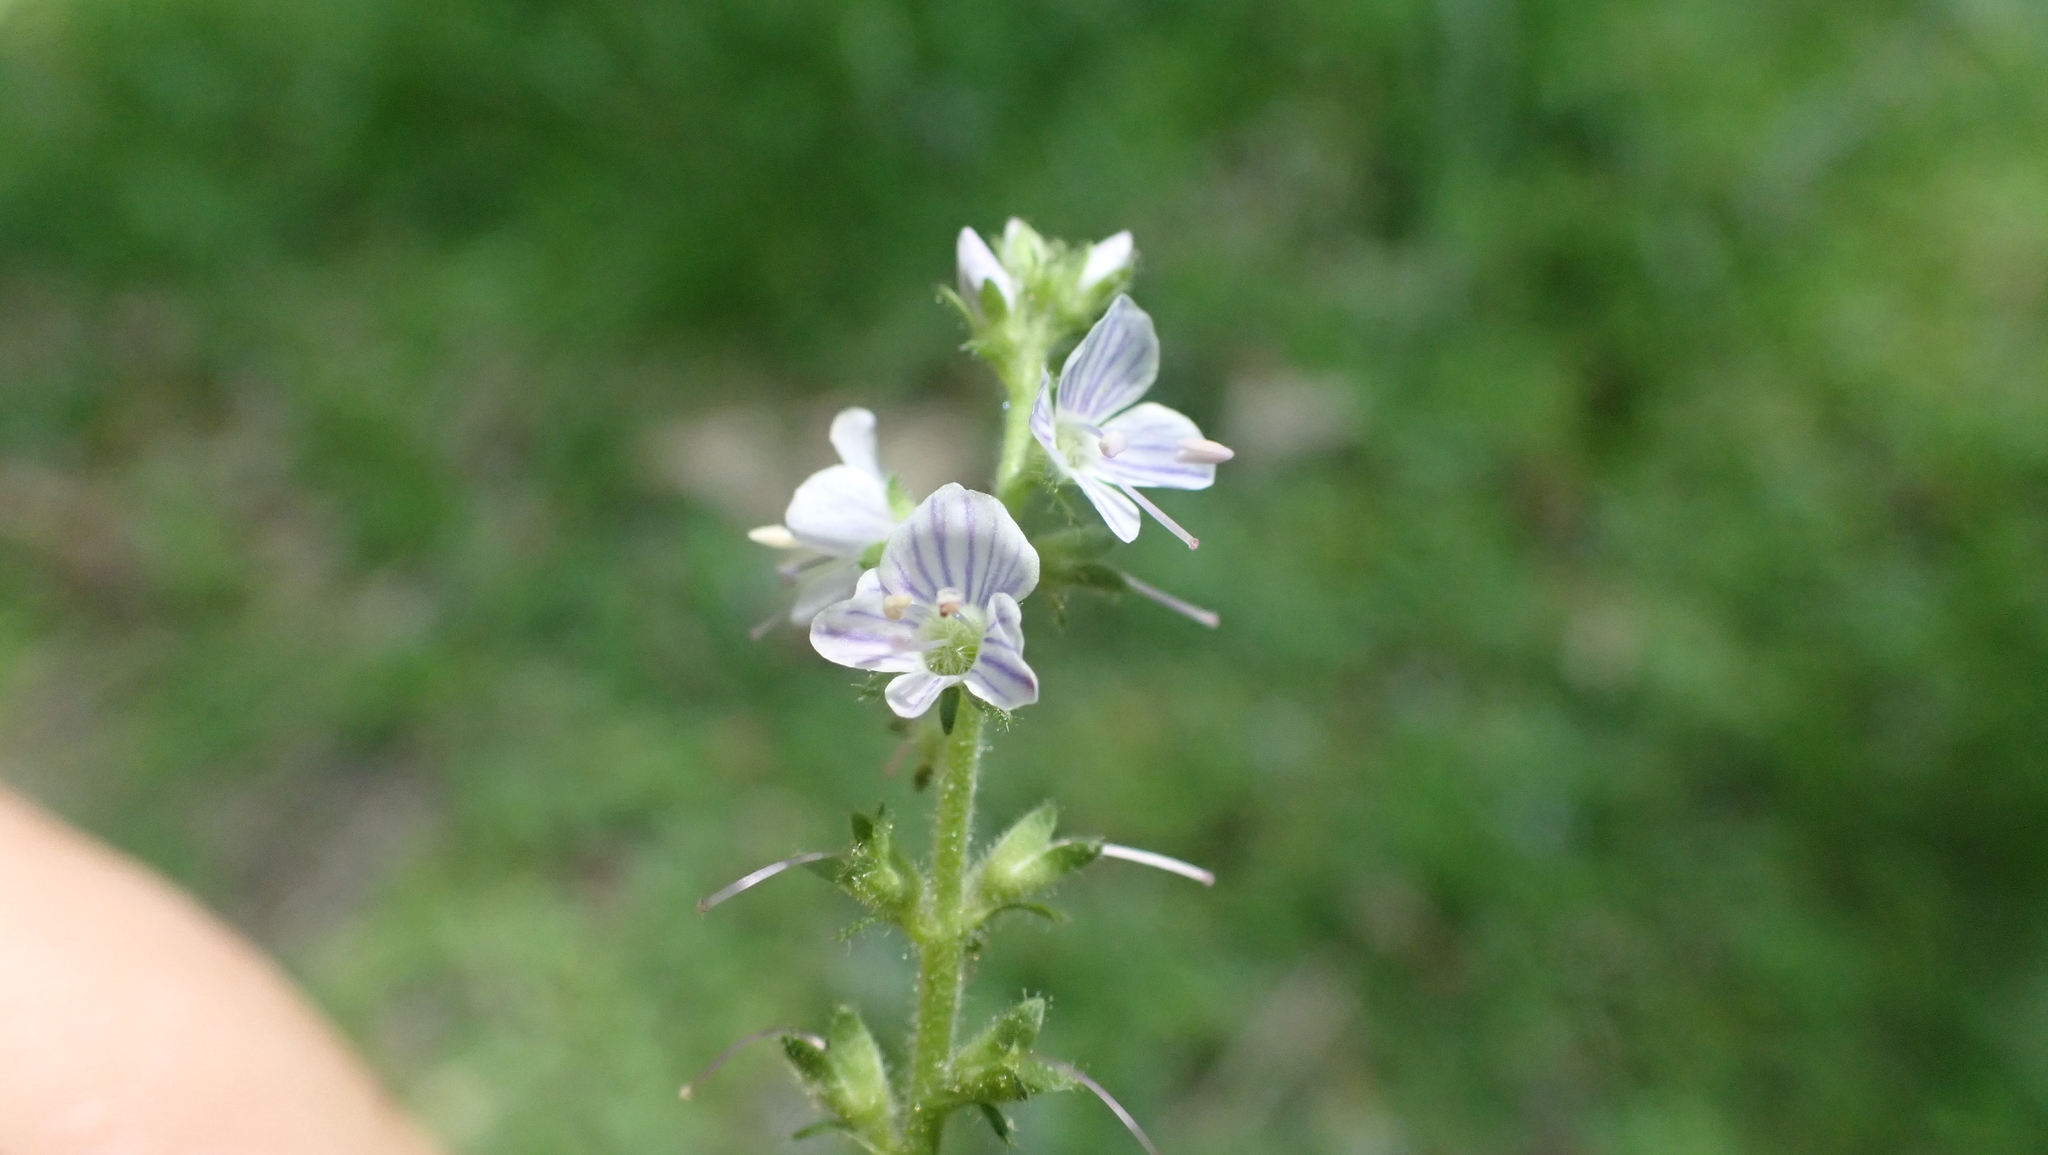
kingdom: Plantae
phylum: Tracheophyta
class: Magnoliopsida
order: Lamiales
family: Plantaginaceae
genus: Veronica
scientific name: Veronica officinalis
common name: Common speedwell
